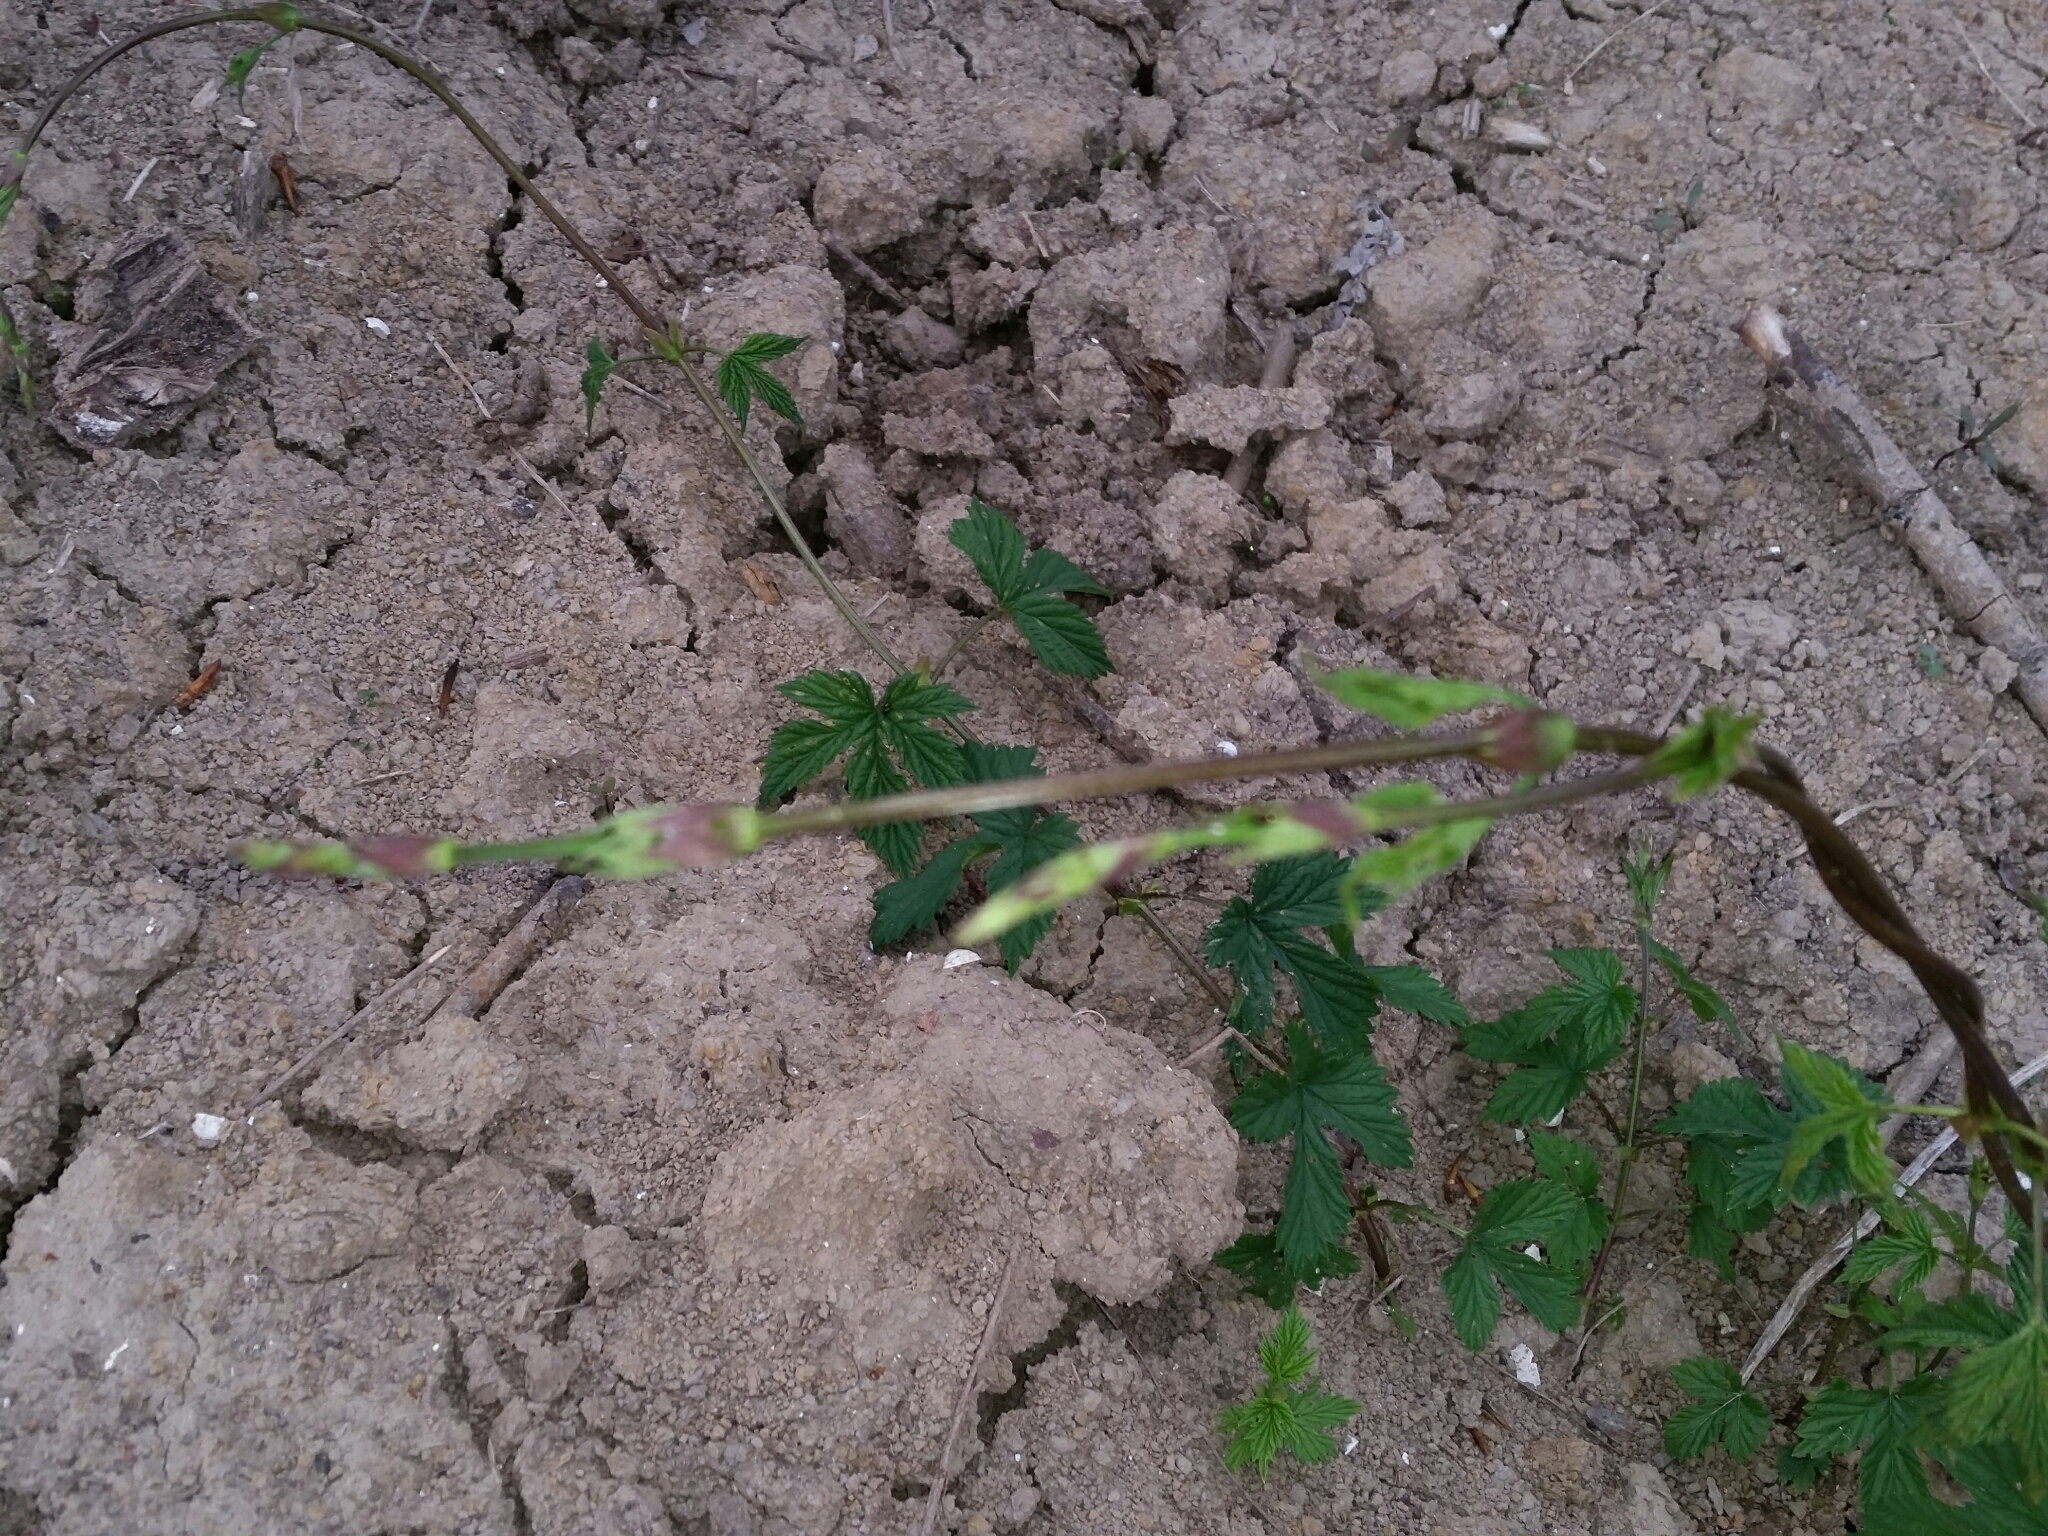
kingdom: Plantae
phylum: Tracheophyta
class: Magnoliopsida
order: Rosales
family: Cannabaceae
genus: Humulus
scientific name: Humulus lupulus
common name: Hop
